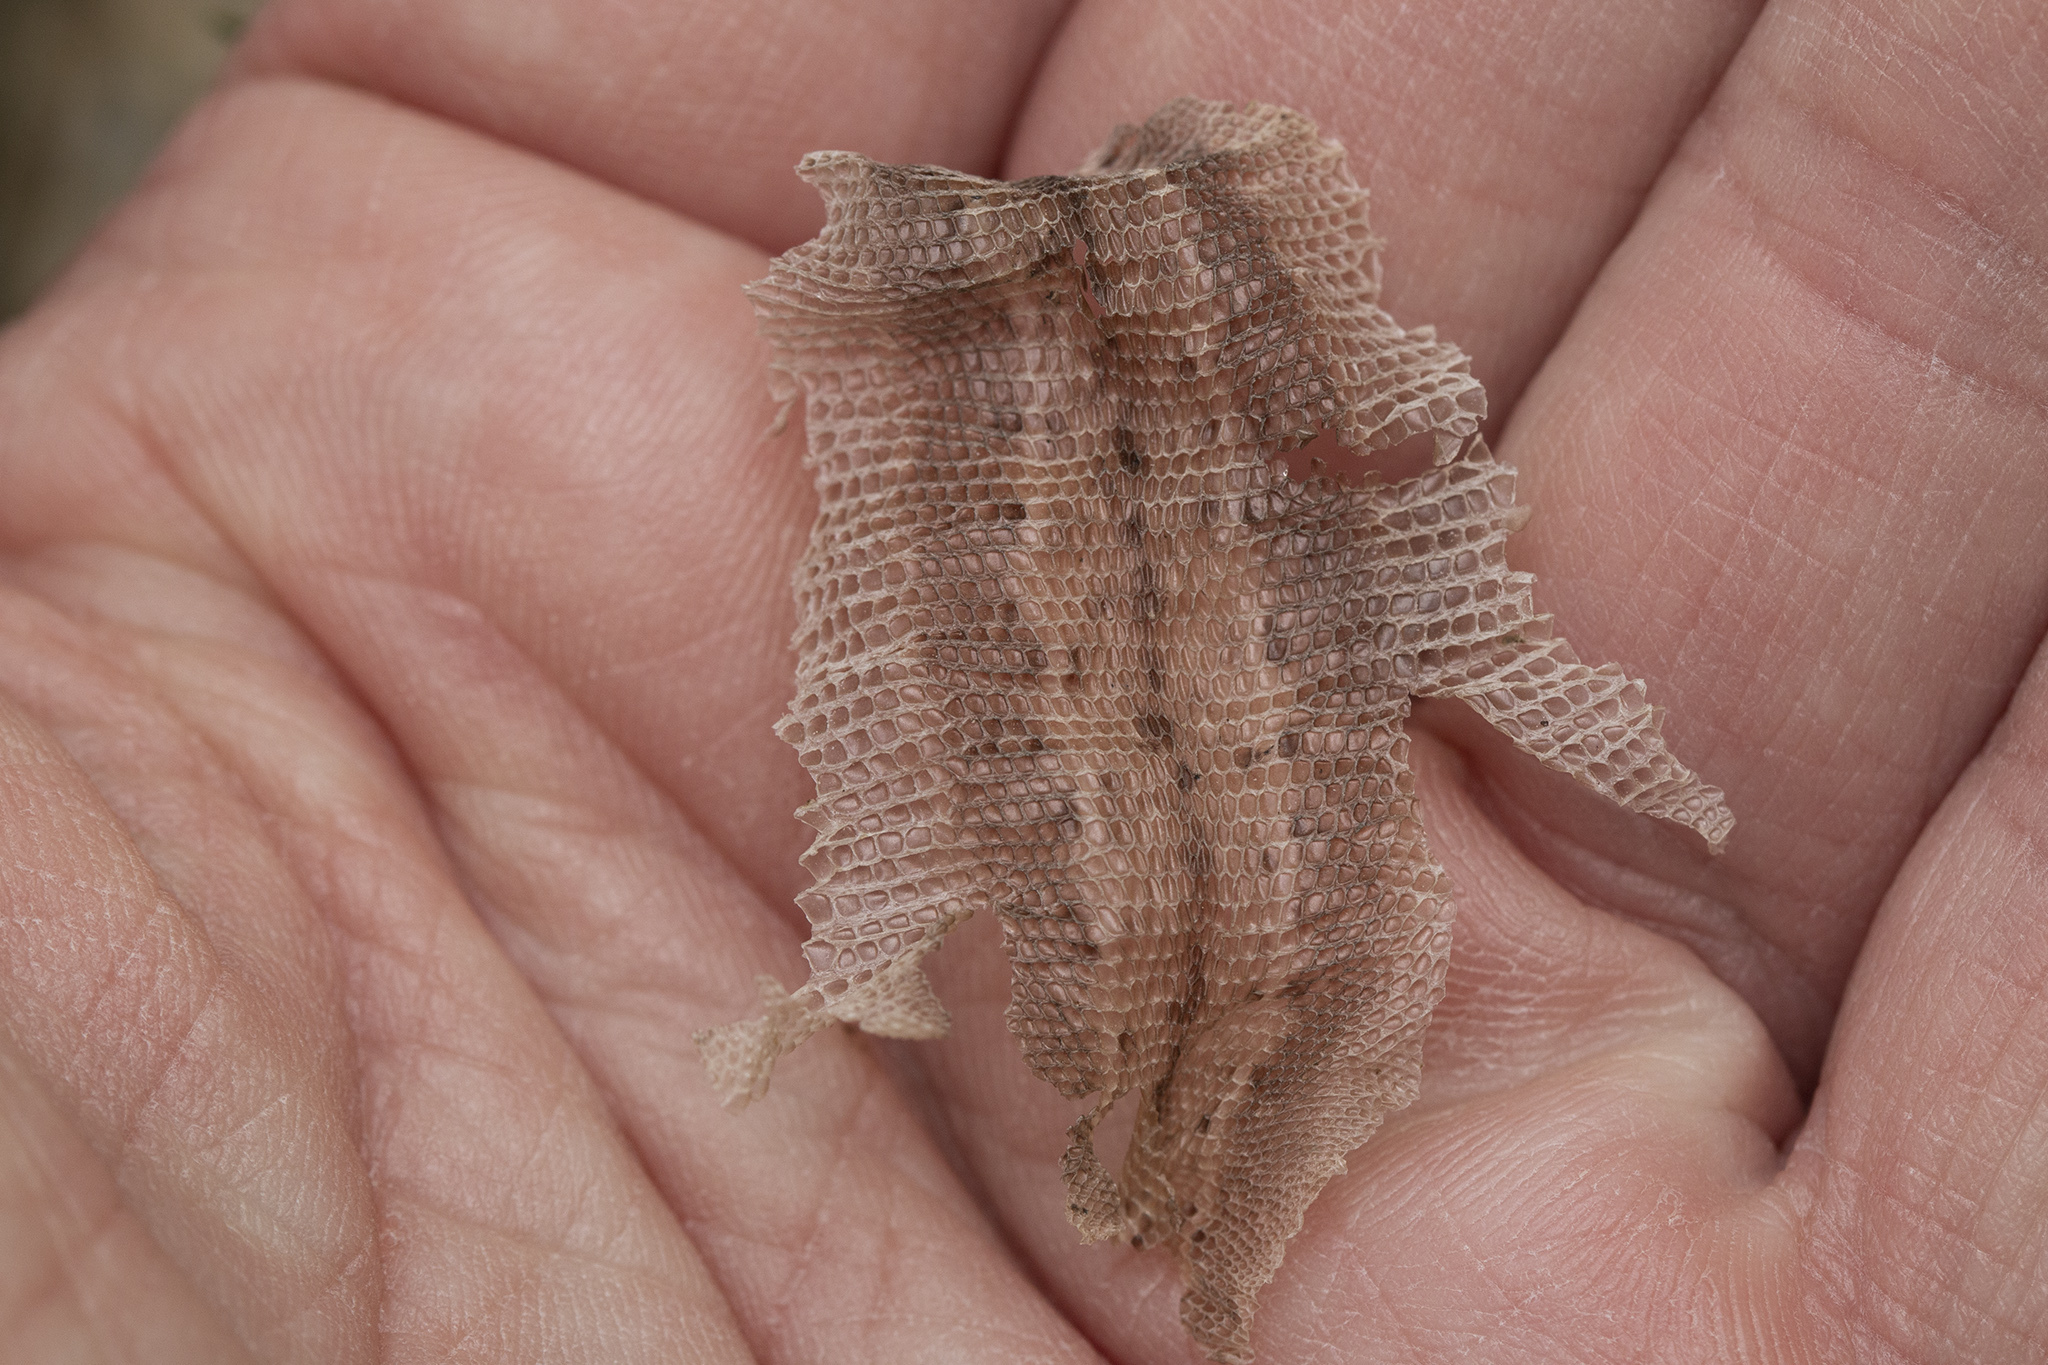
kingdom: Animalia
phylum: Chordata
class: Squamata
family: Lacertidae
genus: Zootoca
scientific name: Zootoca vivipara
